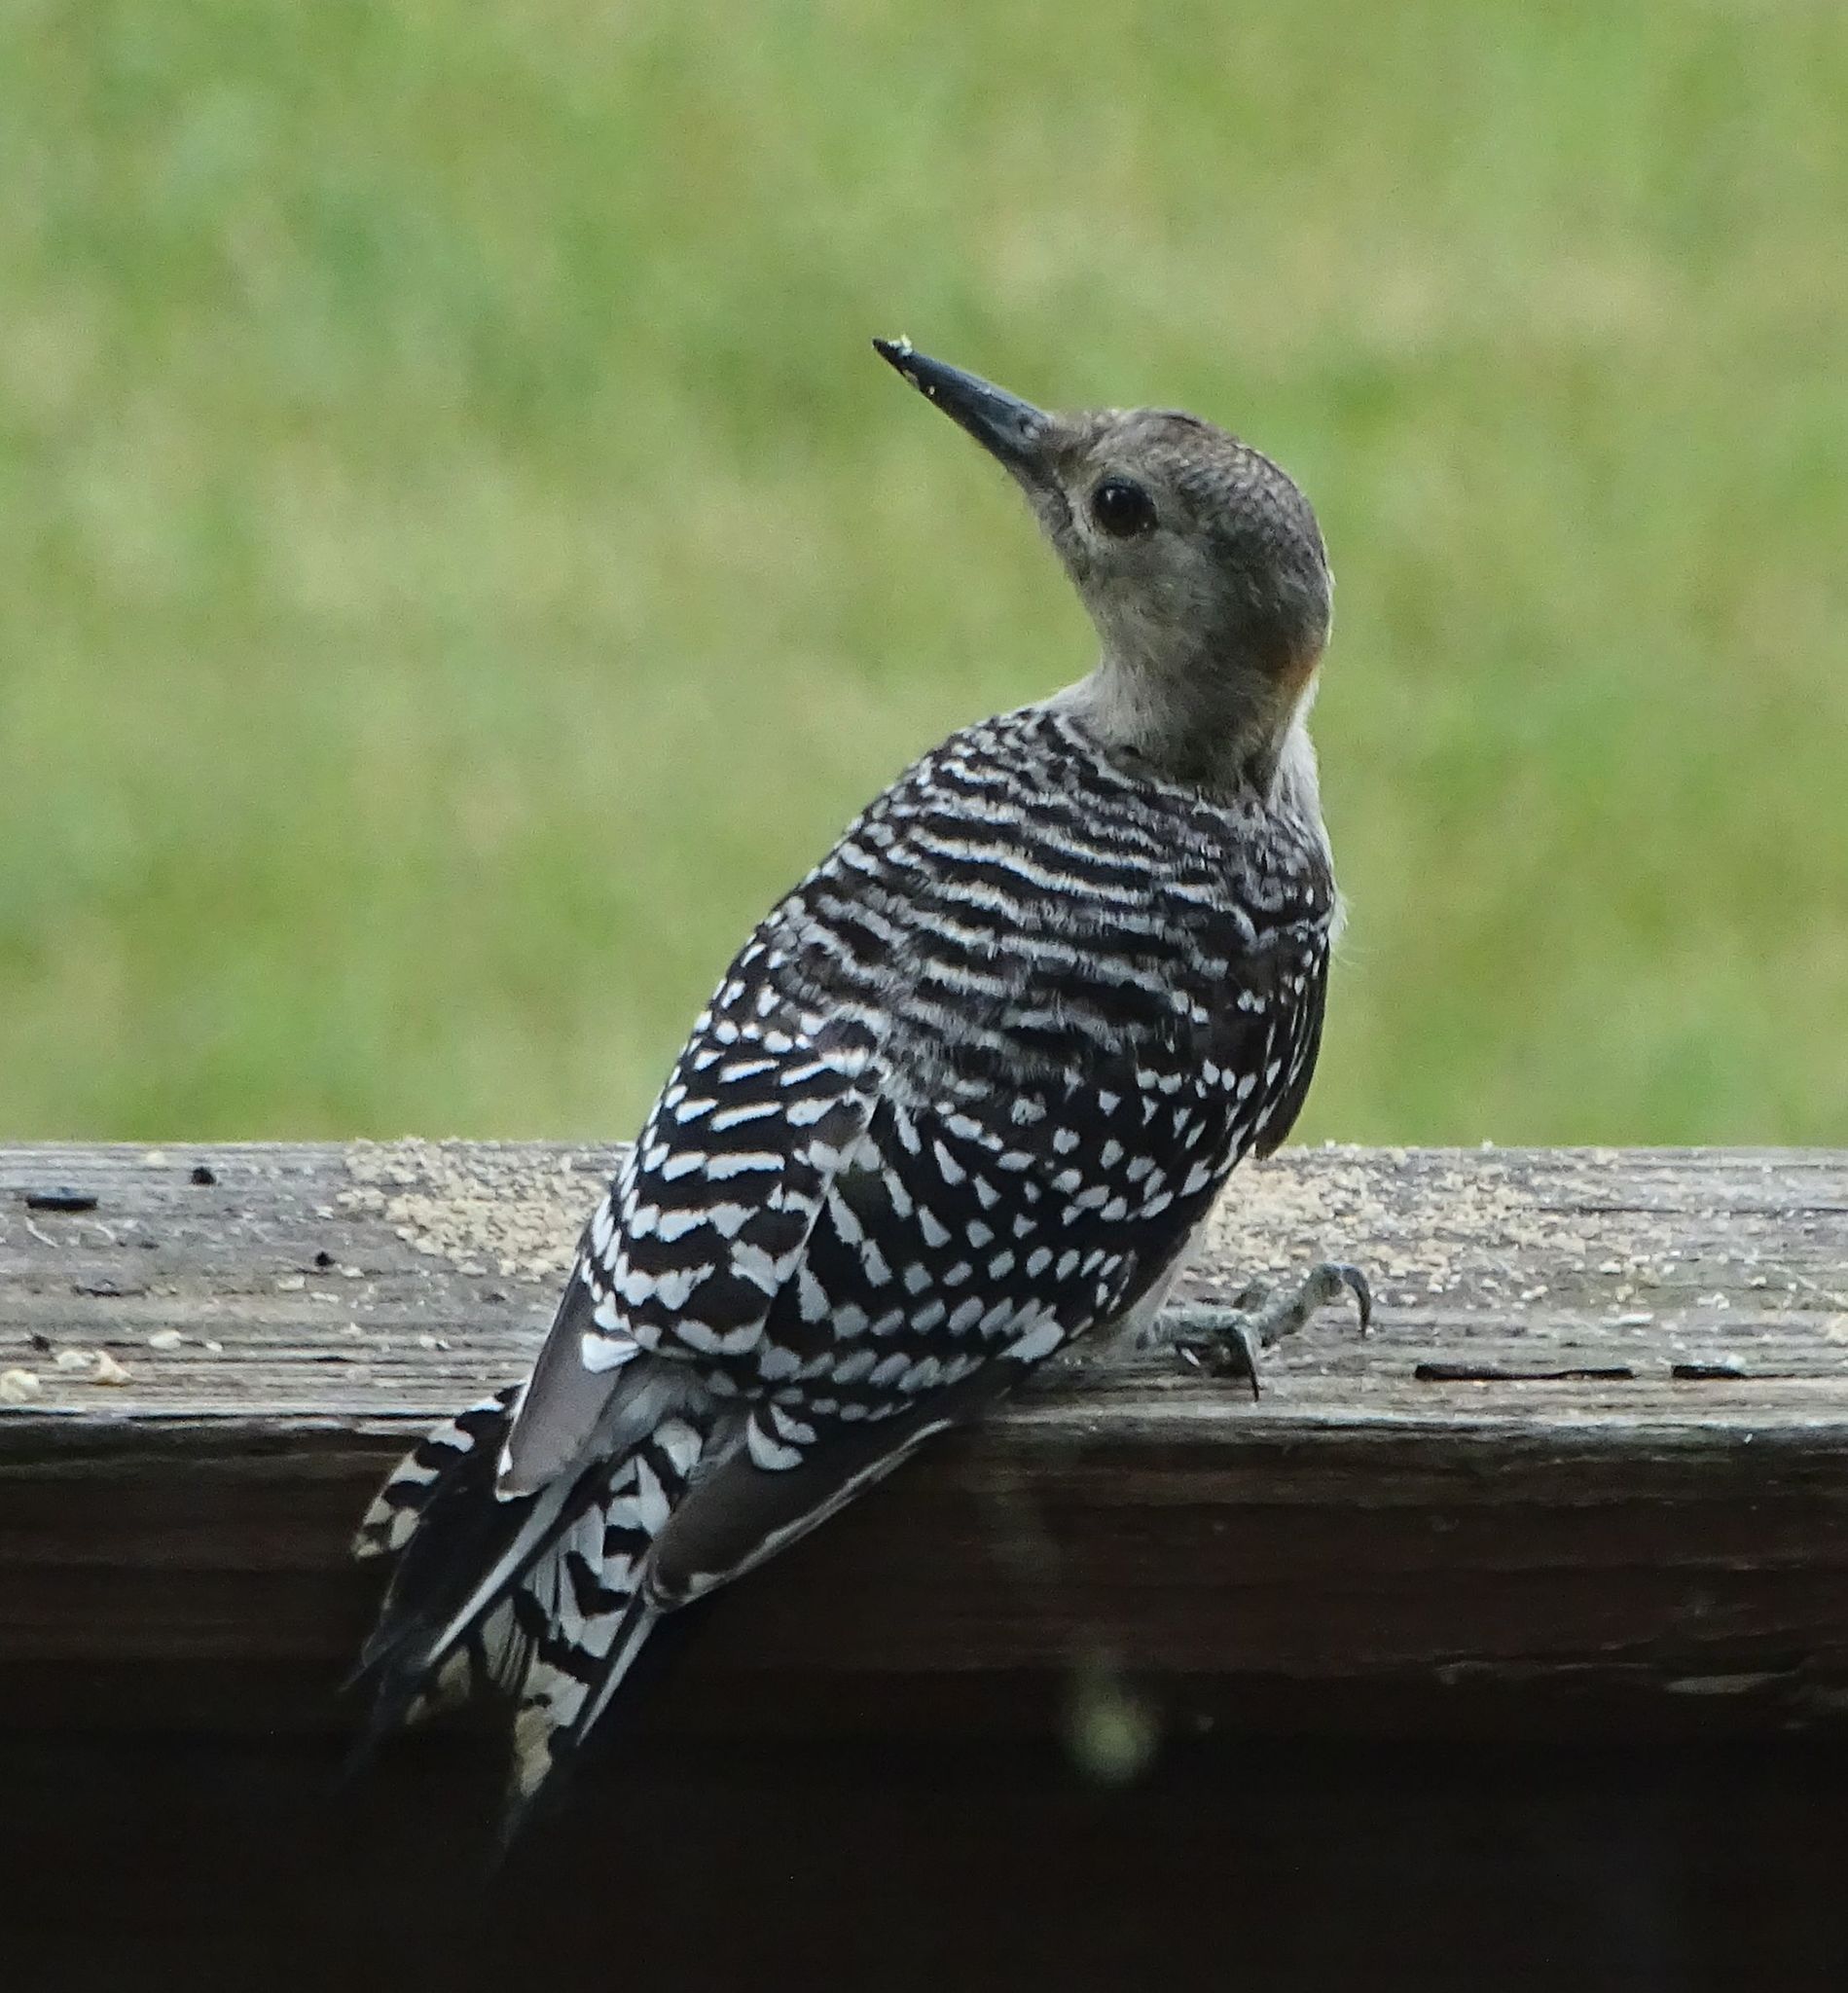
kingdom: Animalia
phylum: Chordata
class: Aves
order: Piciformes
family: Picidae
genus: Melanerpes
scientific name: Melanerpes carolinus
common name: Red-bellied woodpecker
